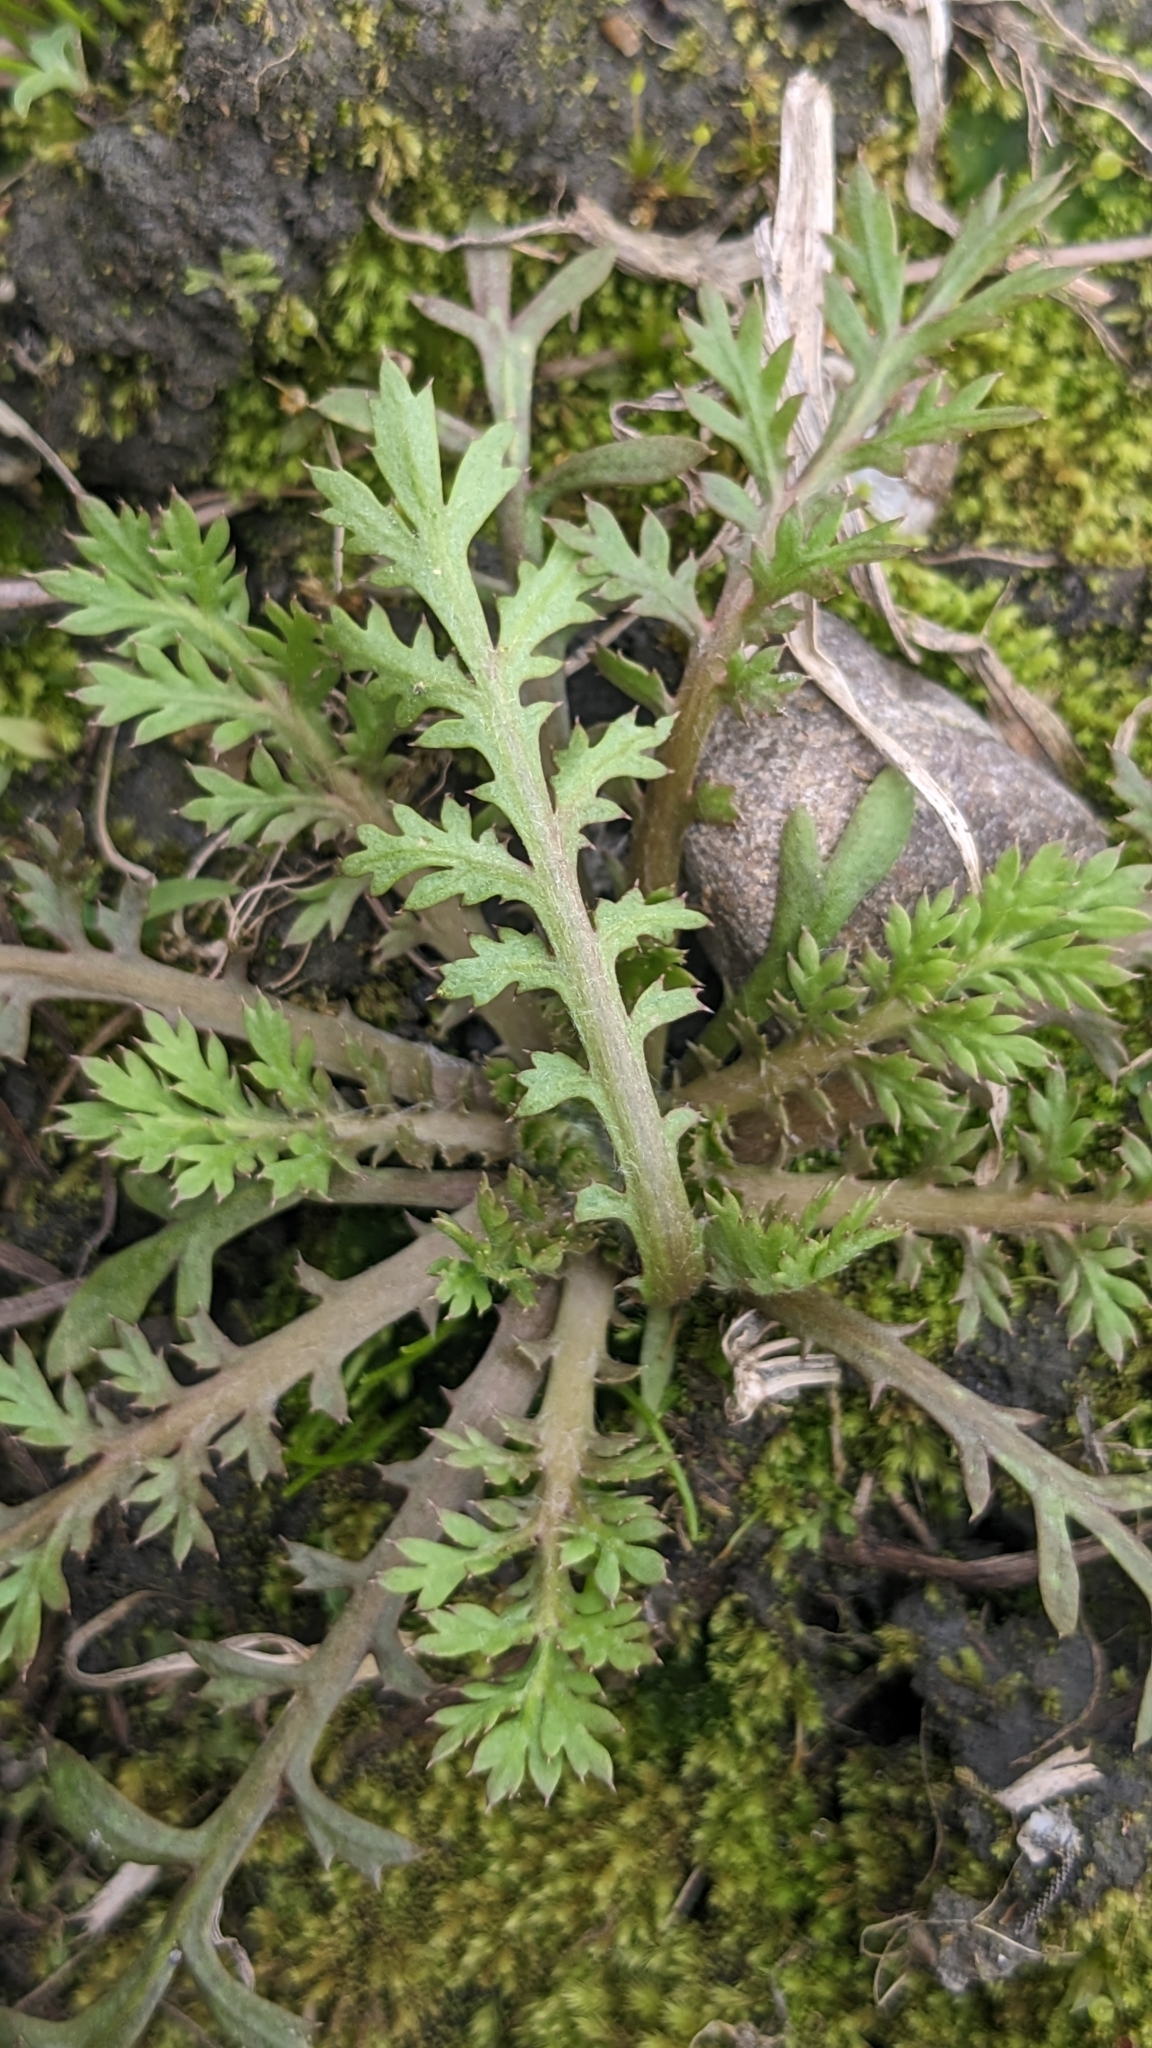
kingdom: Plantae
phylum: Tracheophyta
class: Magnoliopsida
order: Asterales
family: Asteraceae
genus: Cotula
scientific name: Cotula hemisphaerica
